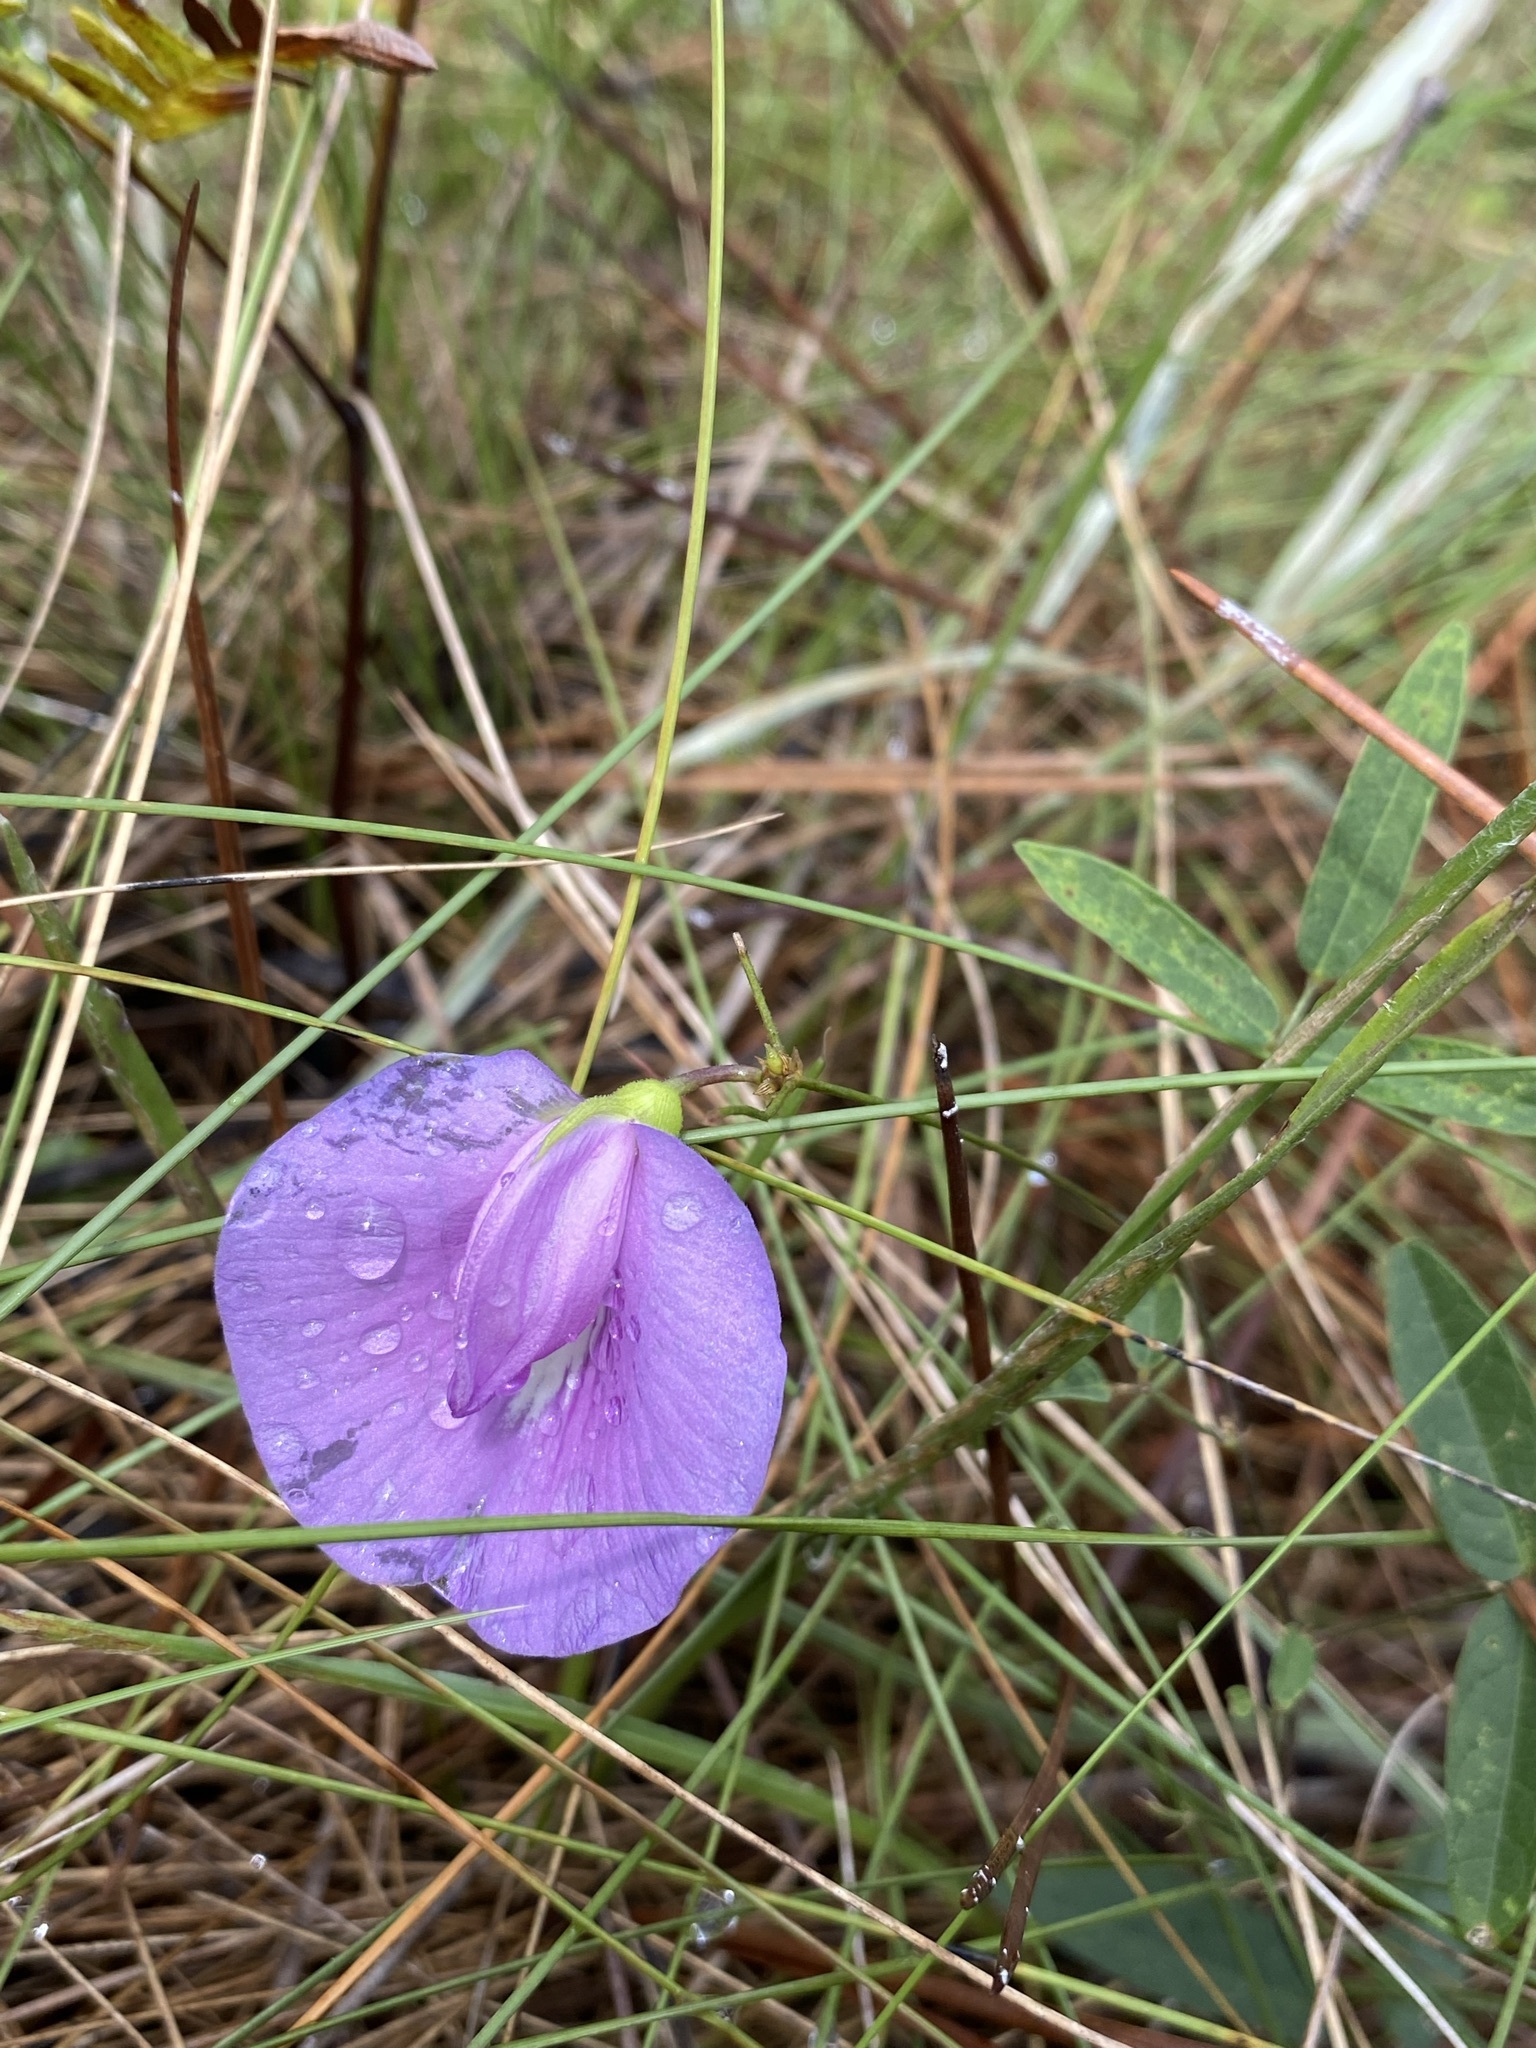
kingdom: Plantae
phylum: Tracheophyta
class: Magnoliopsida
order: Fabales
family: Fabaceae
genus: Centrosema
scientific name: Centrosema virginianum
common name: Butterfly-pea
